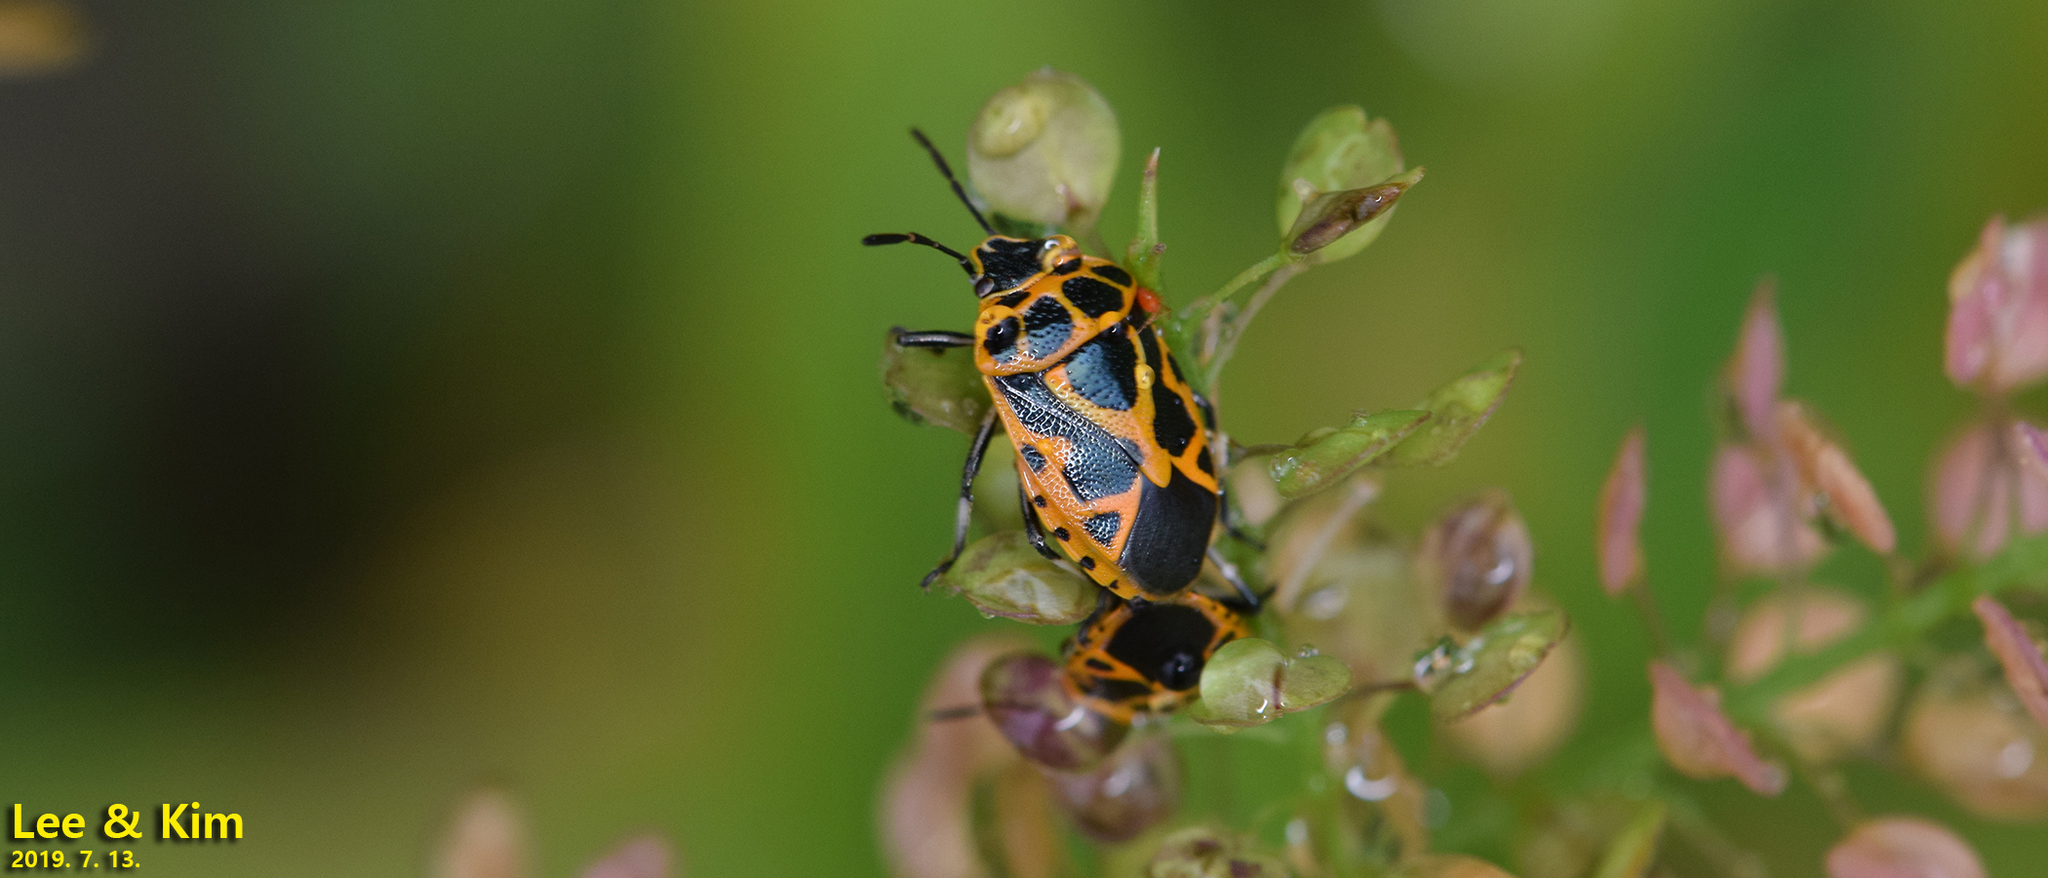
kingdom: Animalia
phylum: Arthropoda
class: Insecta
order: Hemiptera
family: Pentatomidae
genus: Eurydema
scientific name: Eurydema dominulus
